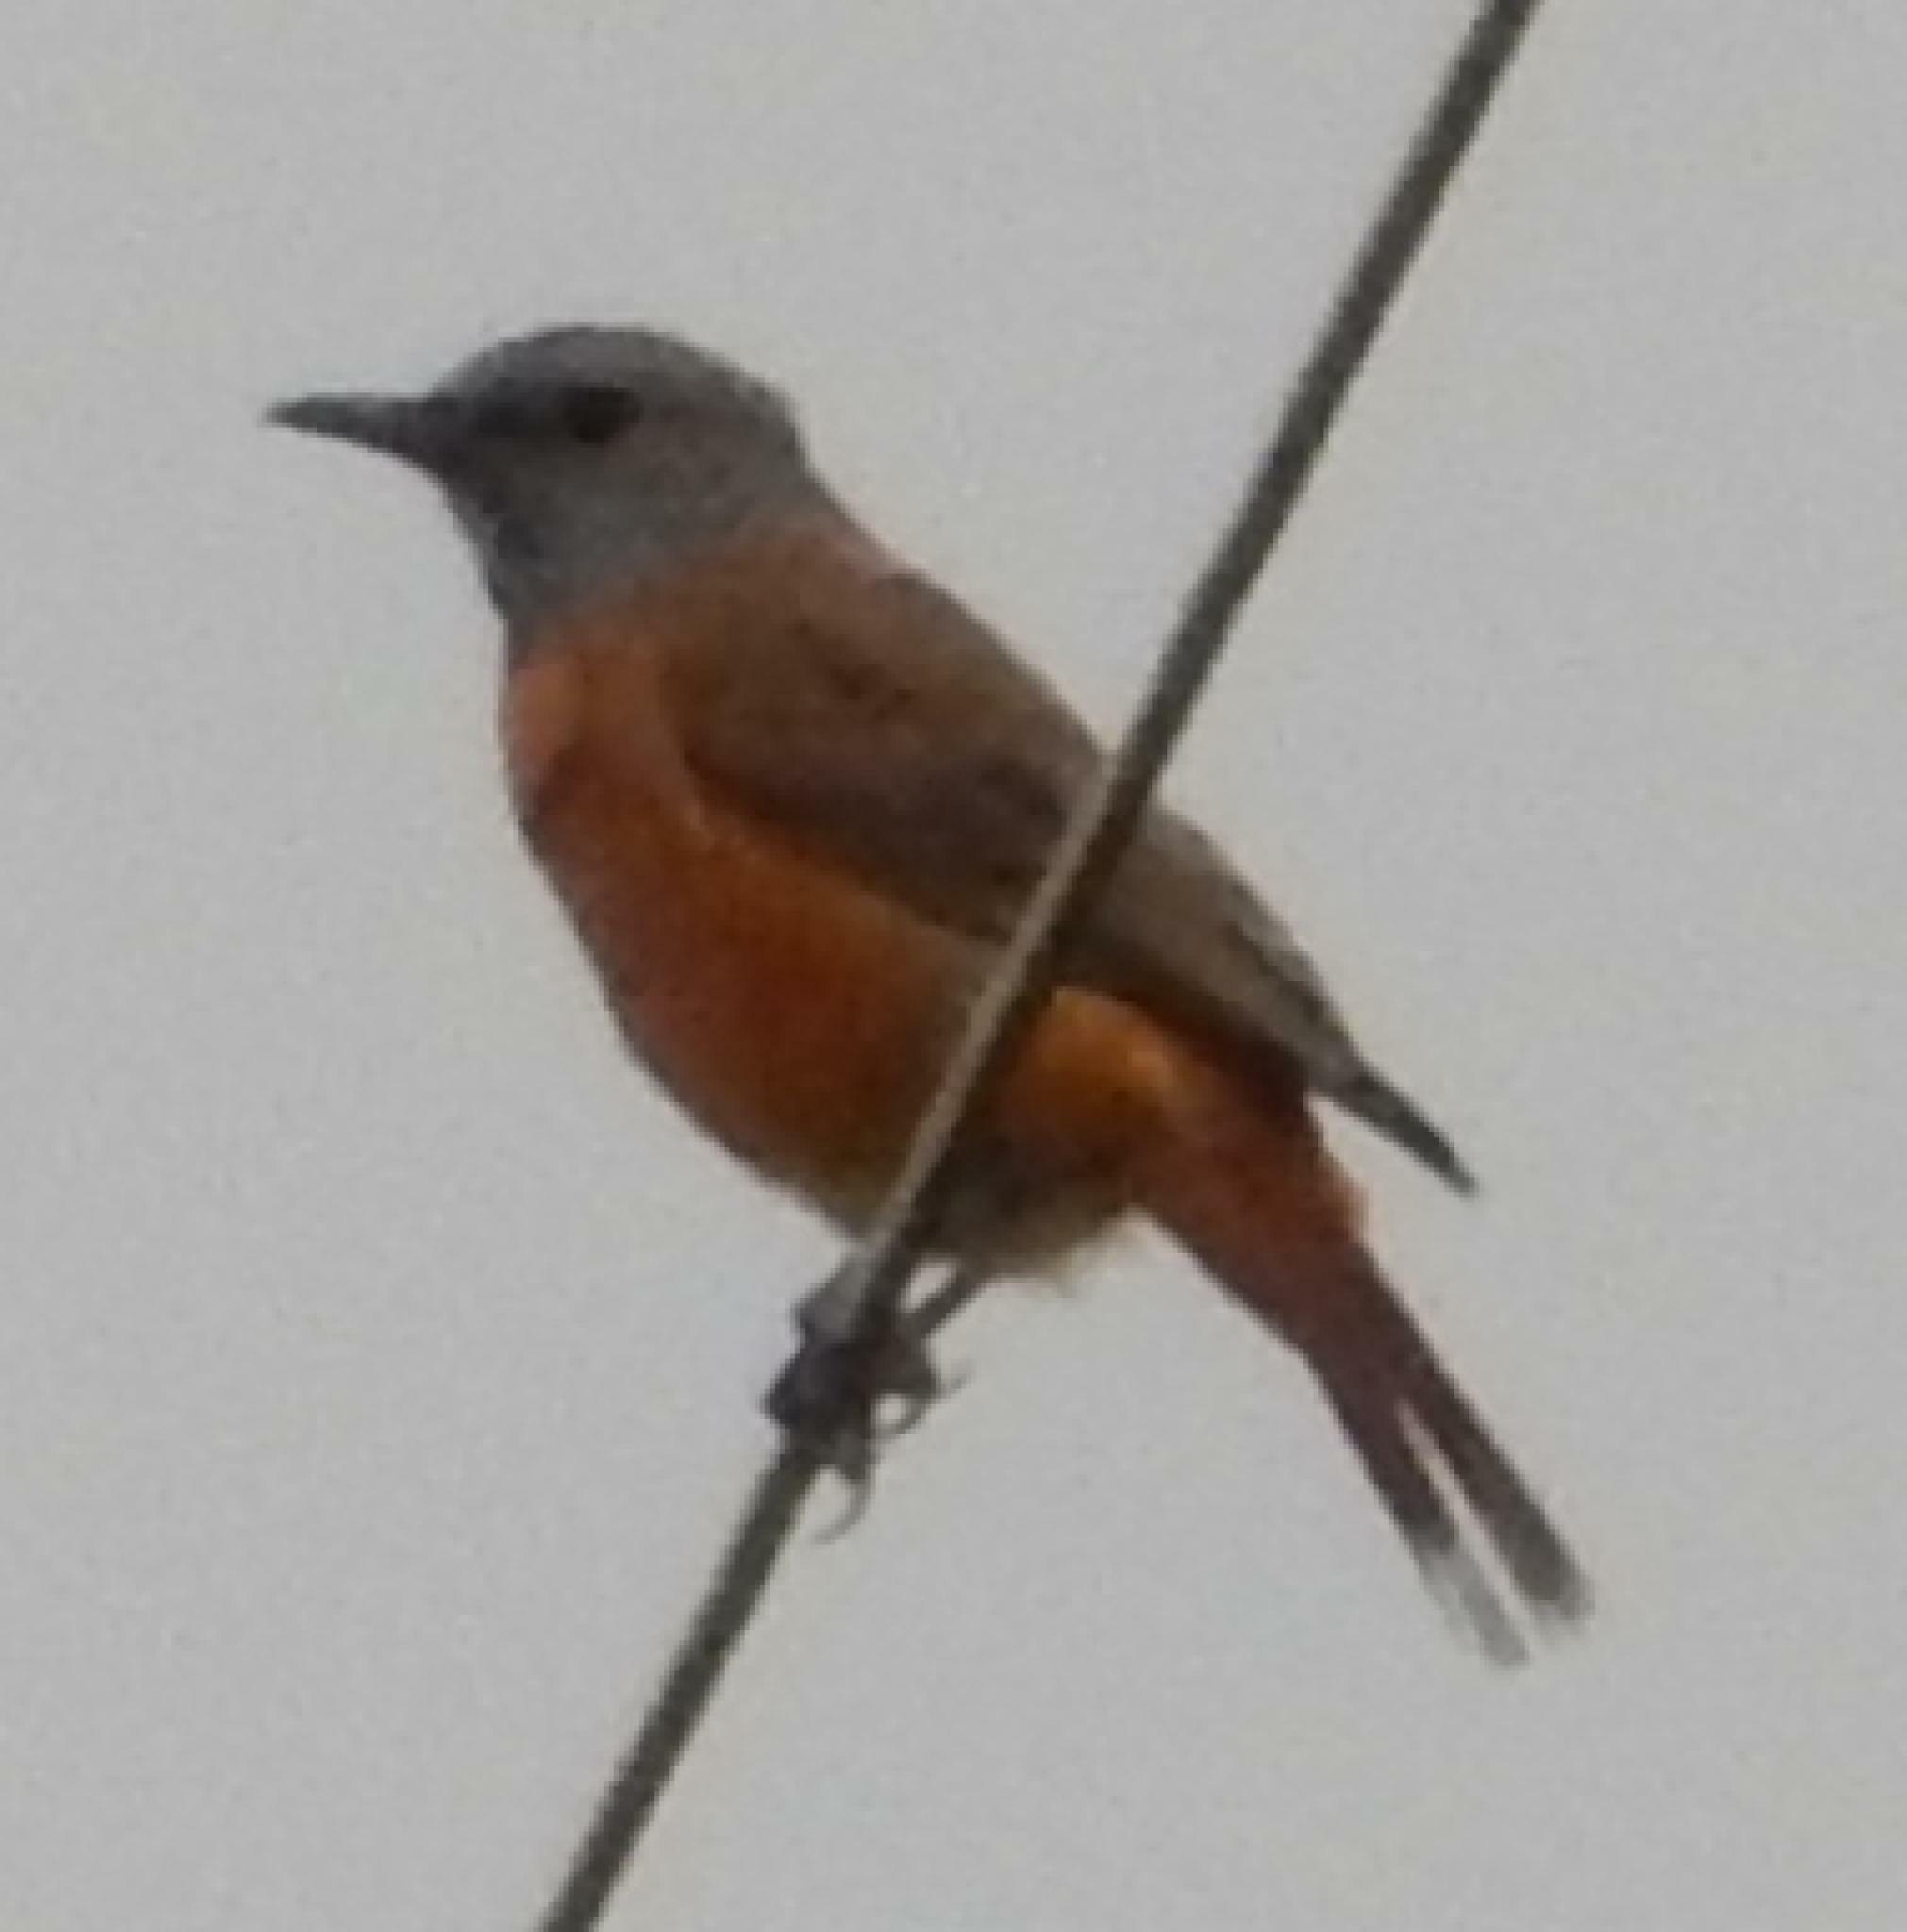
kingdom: Animalia
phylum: Chordata
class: Aves
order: Passeriformes
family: Muscicapidae
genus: Monticola
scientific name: Monticola rupestris
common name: Cape rock thrush
